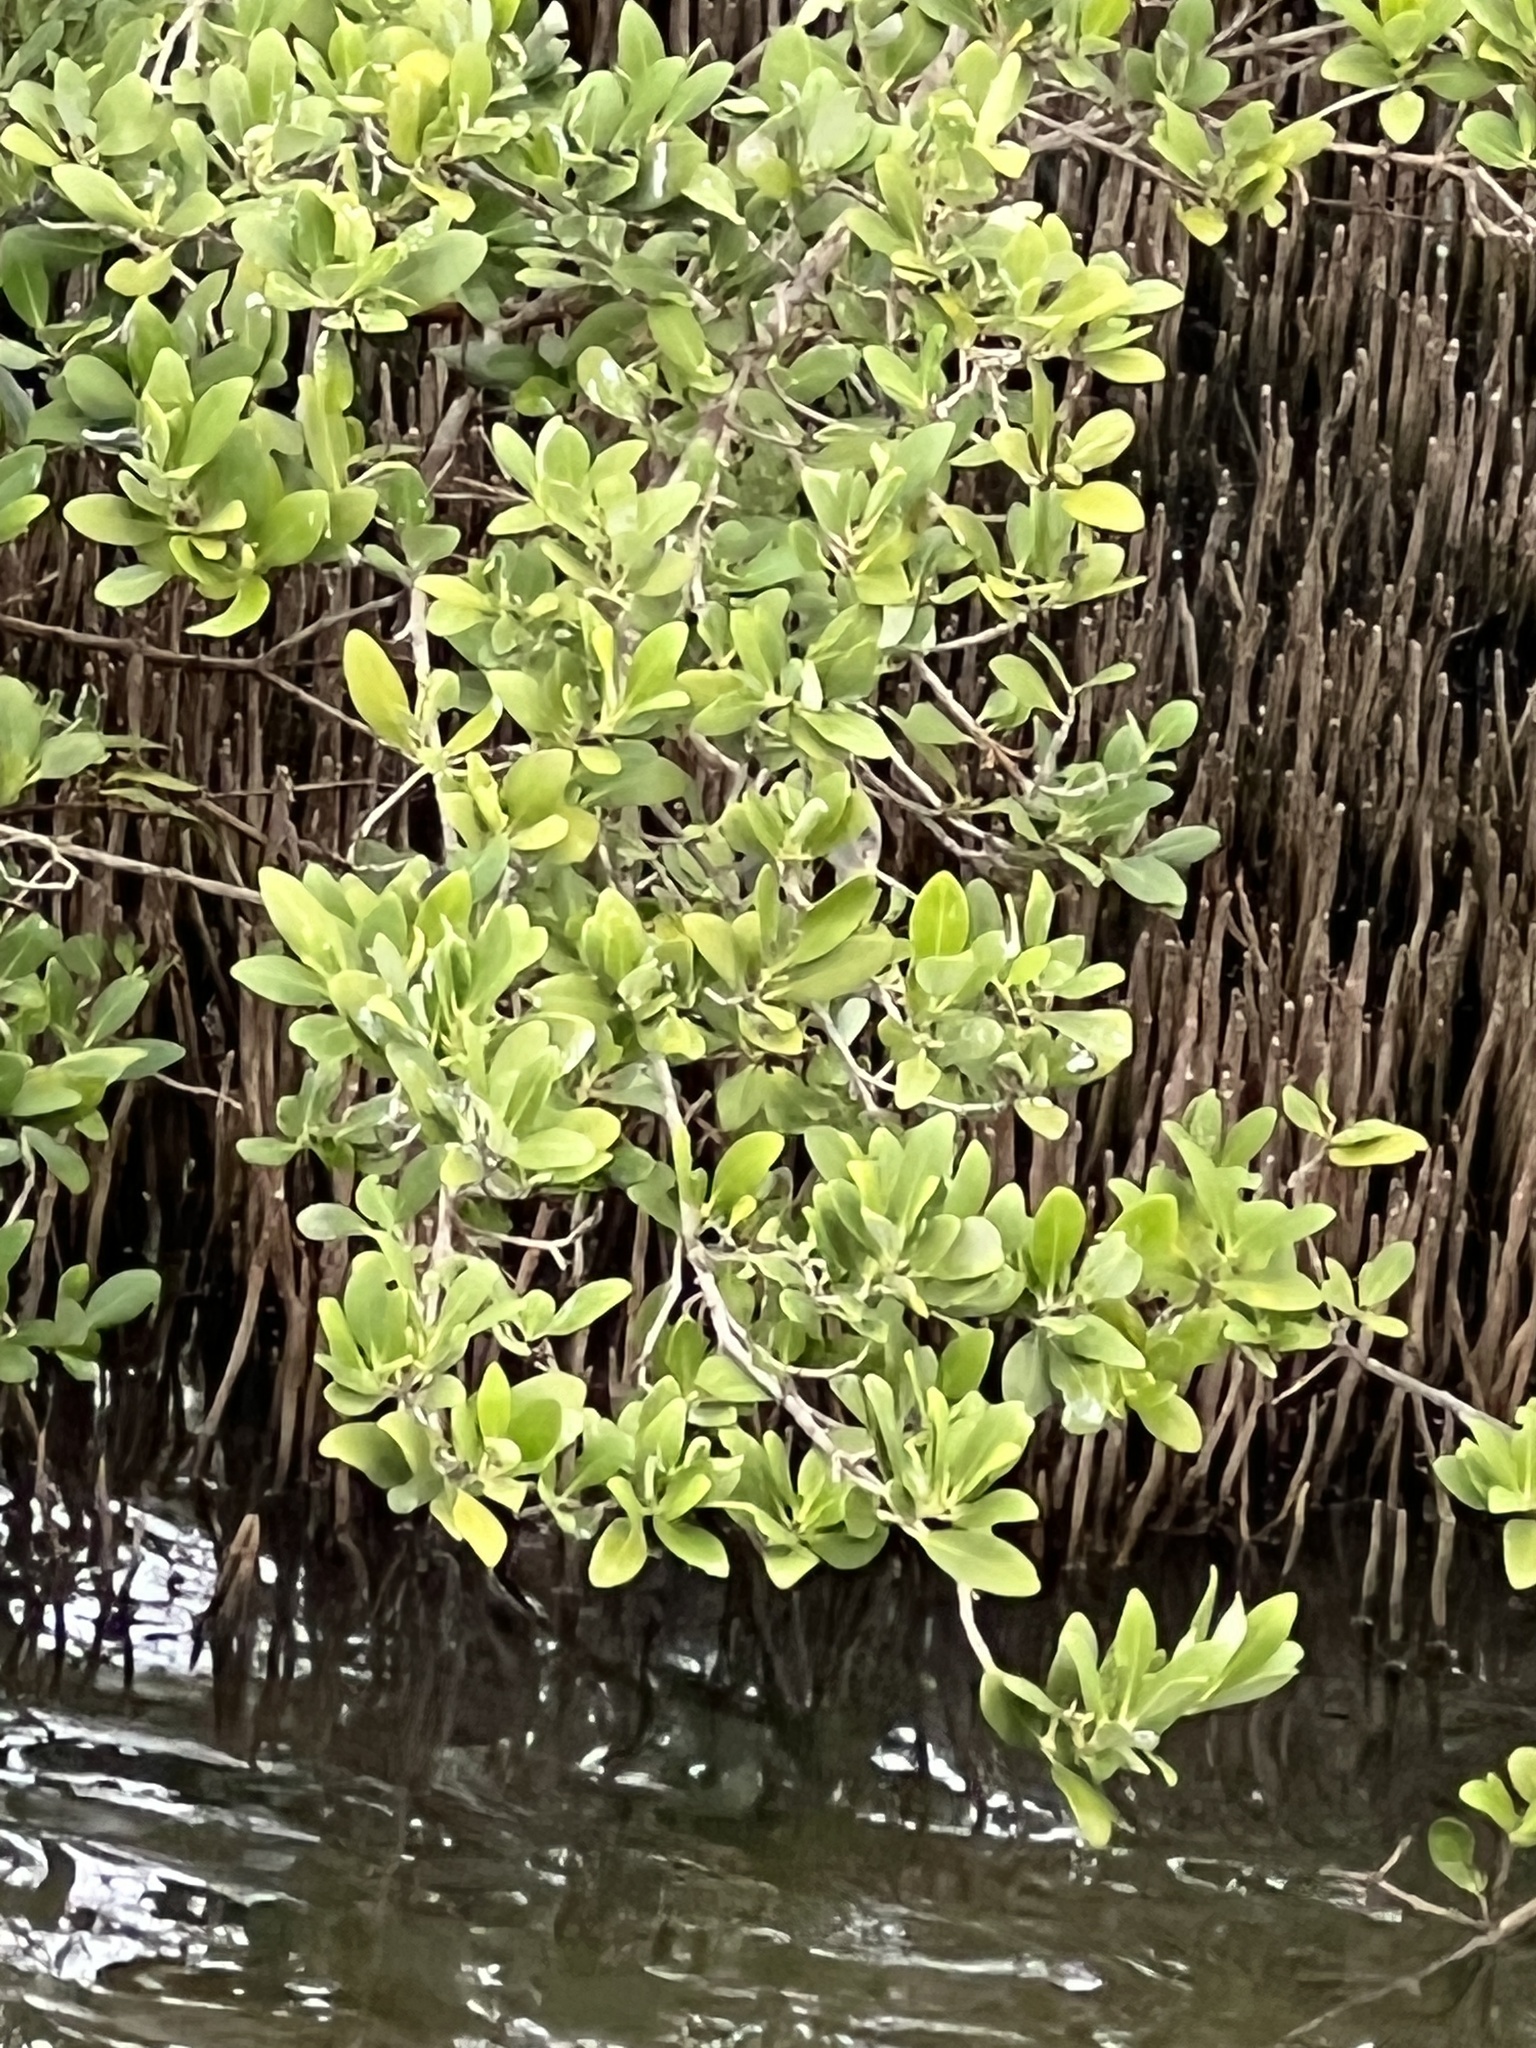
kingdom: Plantae
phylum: Tracheophyta
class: Magnoliopsida
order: Lamiales
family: Acanthaceae
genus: Avicennia
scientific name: Avicennia germinans
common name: Black mangrove
